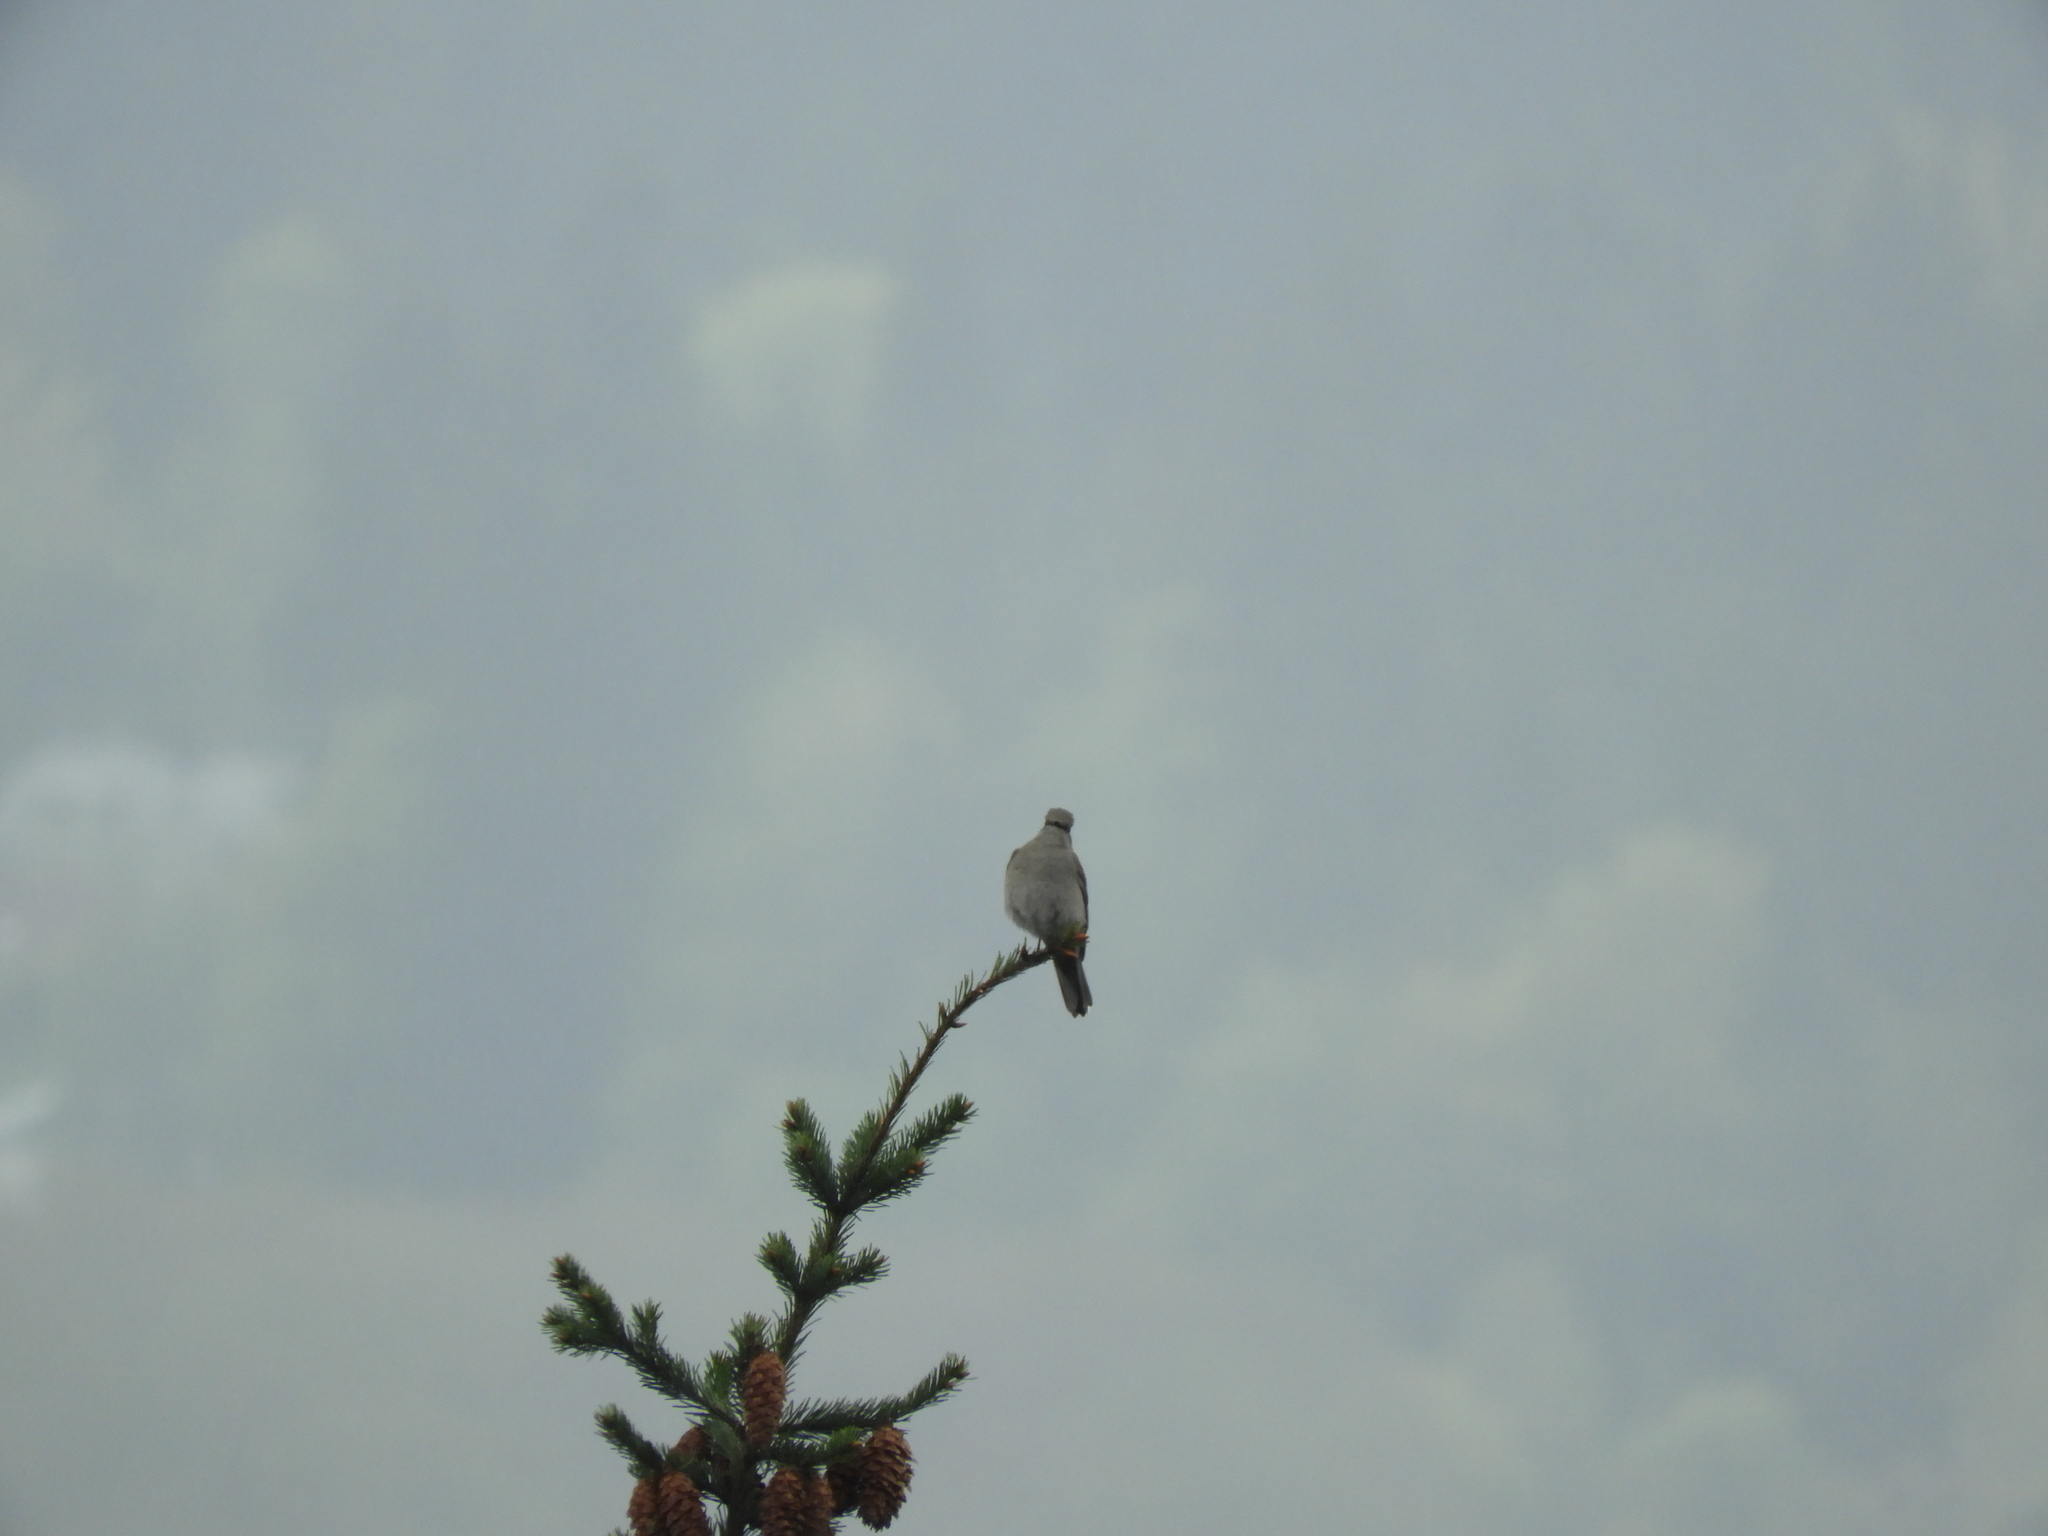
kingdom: Animalia
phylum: Chordata
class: Aves
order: Passeriformes
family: Turdidae
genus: Myadestes
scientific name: Myadestes townsendi
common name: Townsend's solitaire
